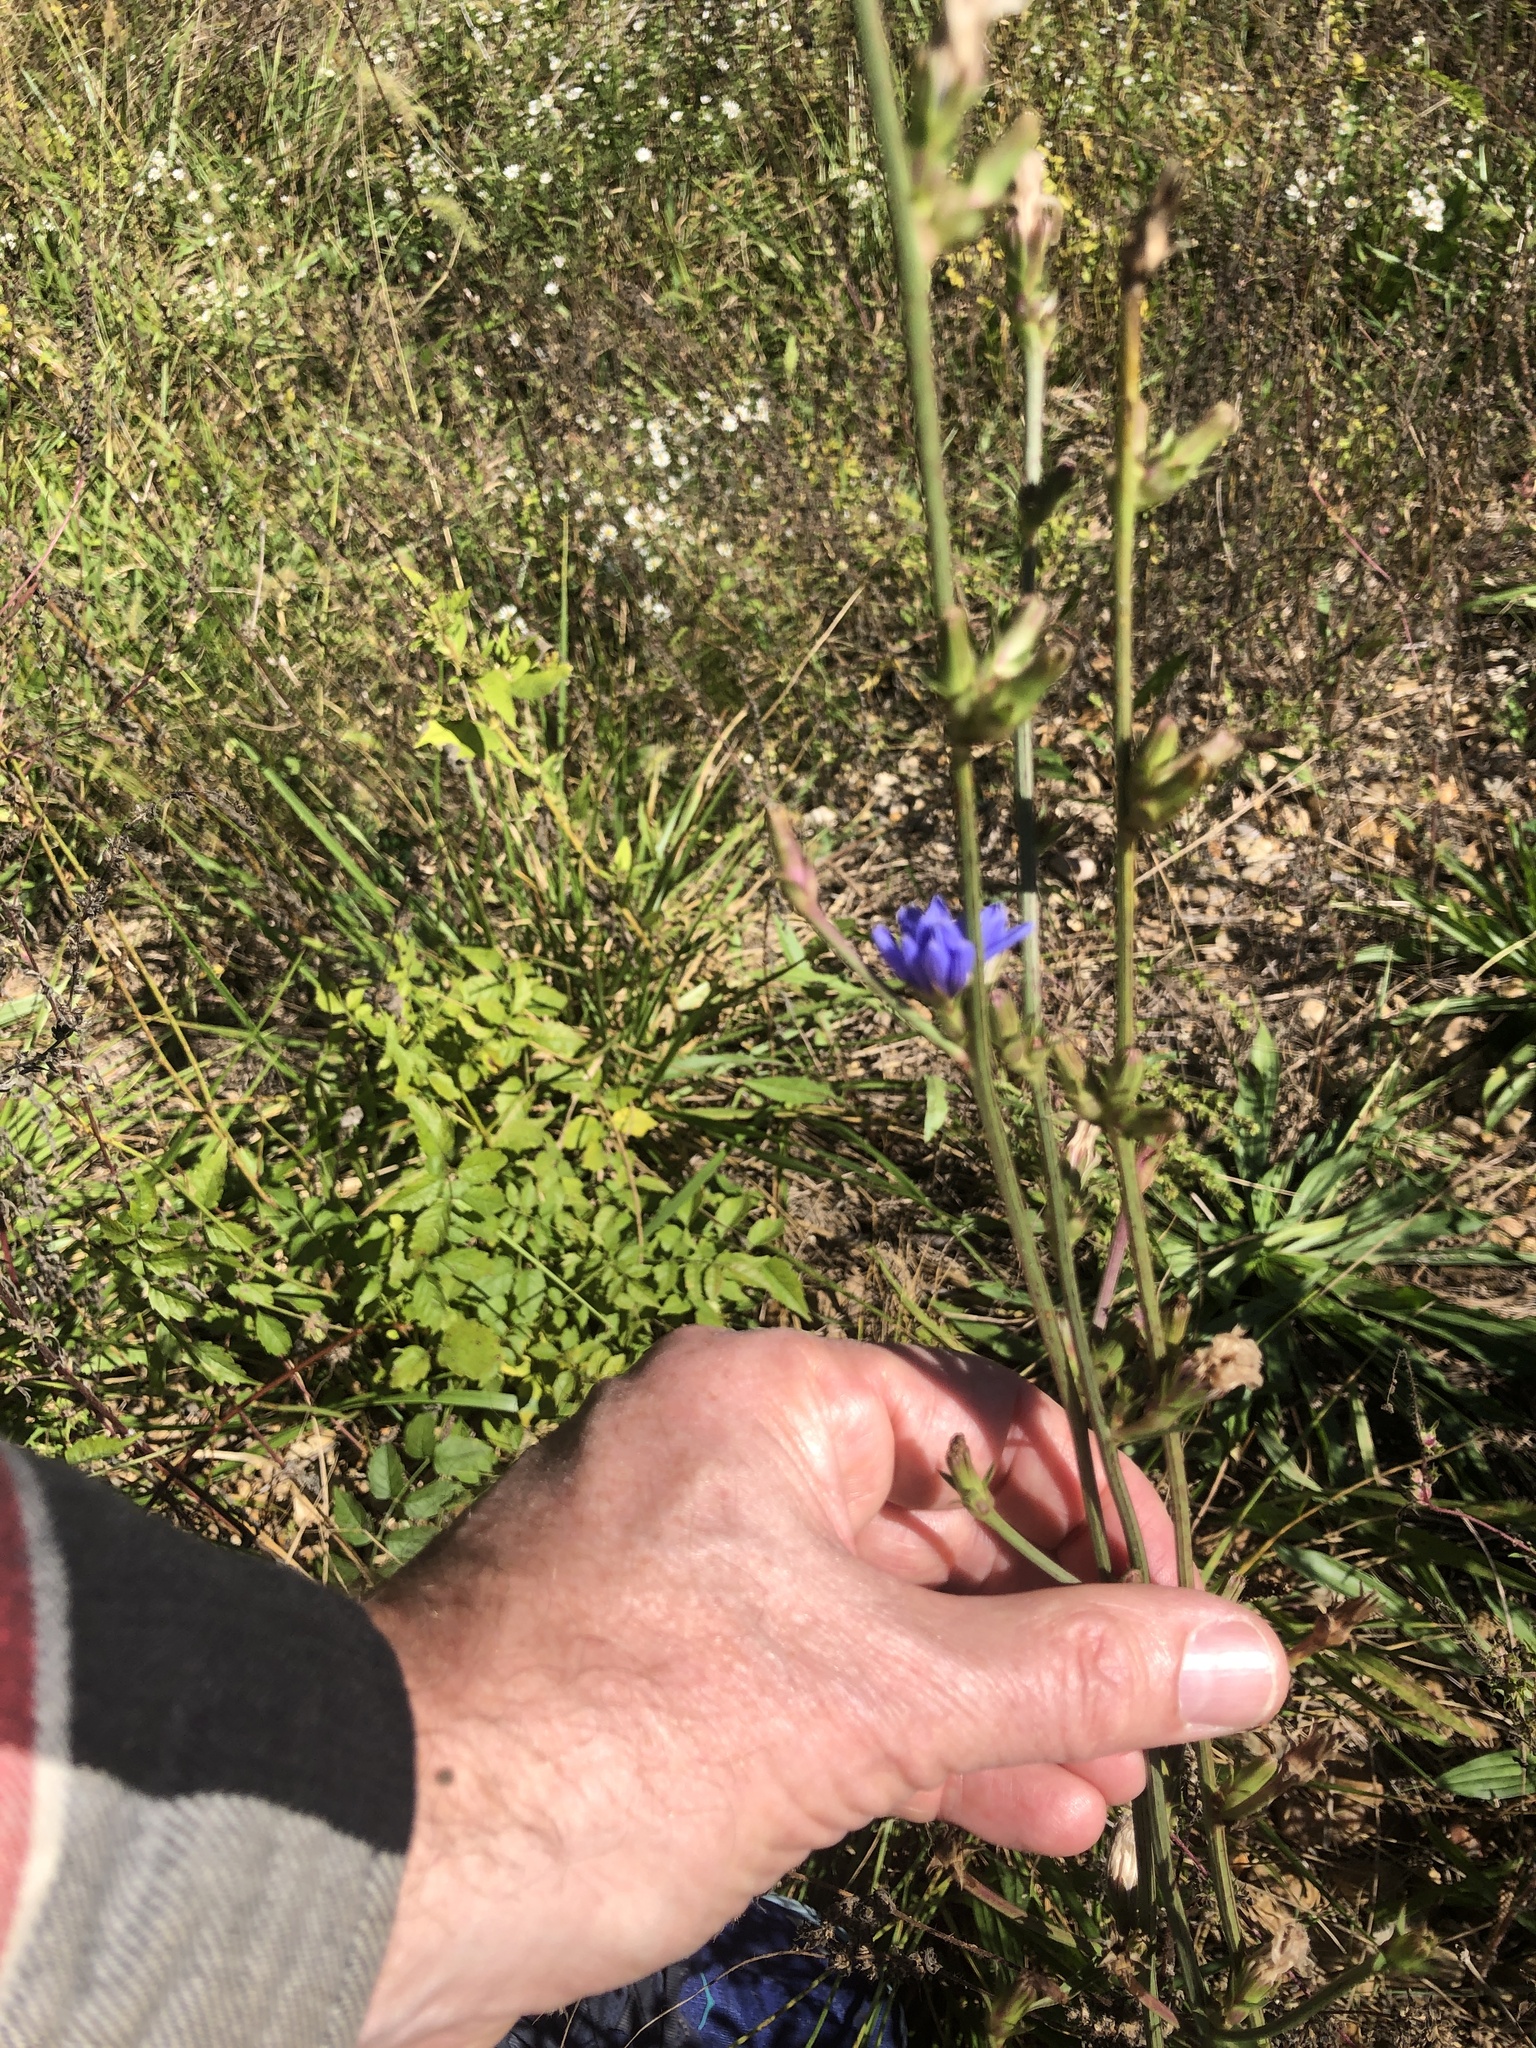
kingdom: Plantae
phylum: Tracheophyta
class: Magnoliopsida
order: Asterales
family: Asteraceae
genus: Cichorium
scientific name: Cichorium intybus
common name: Chicory
